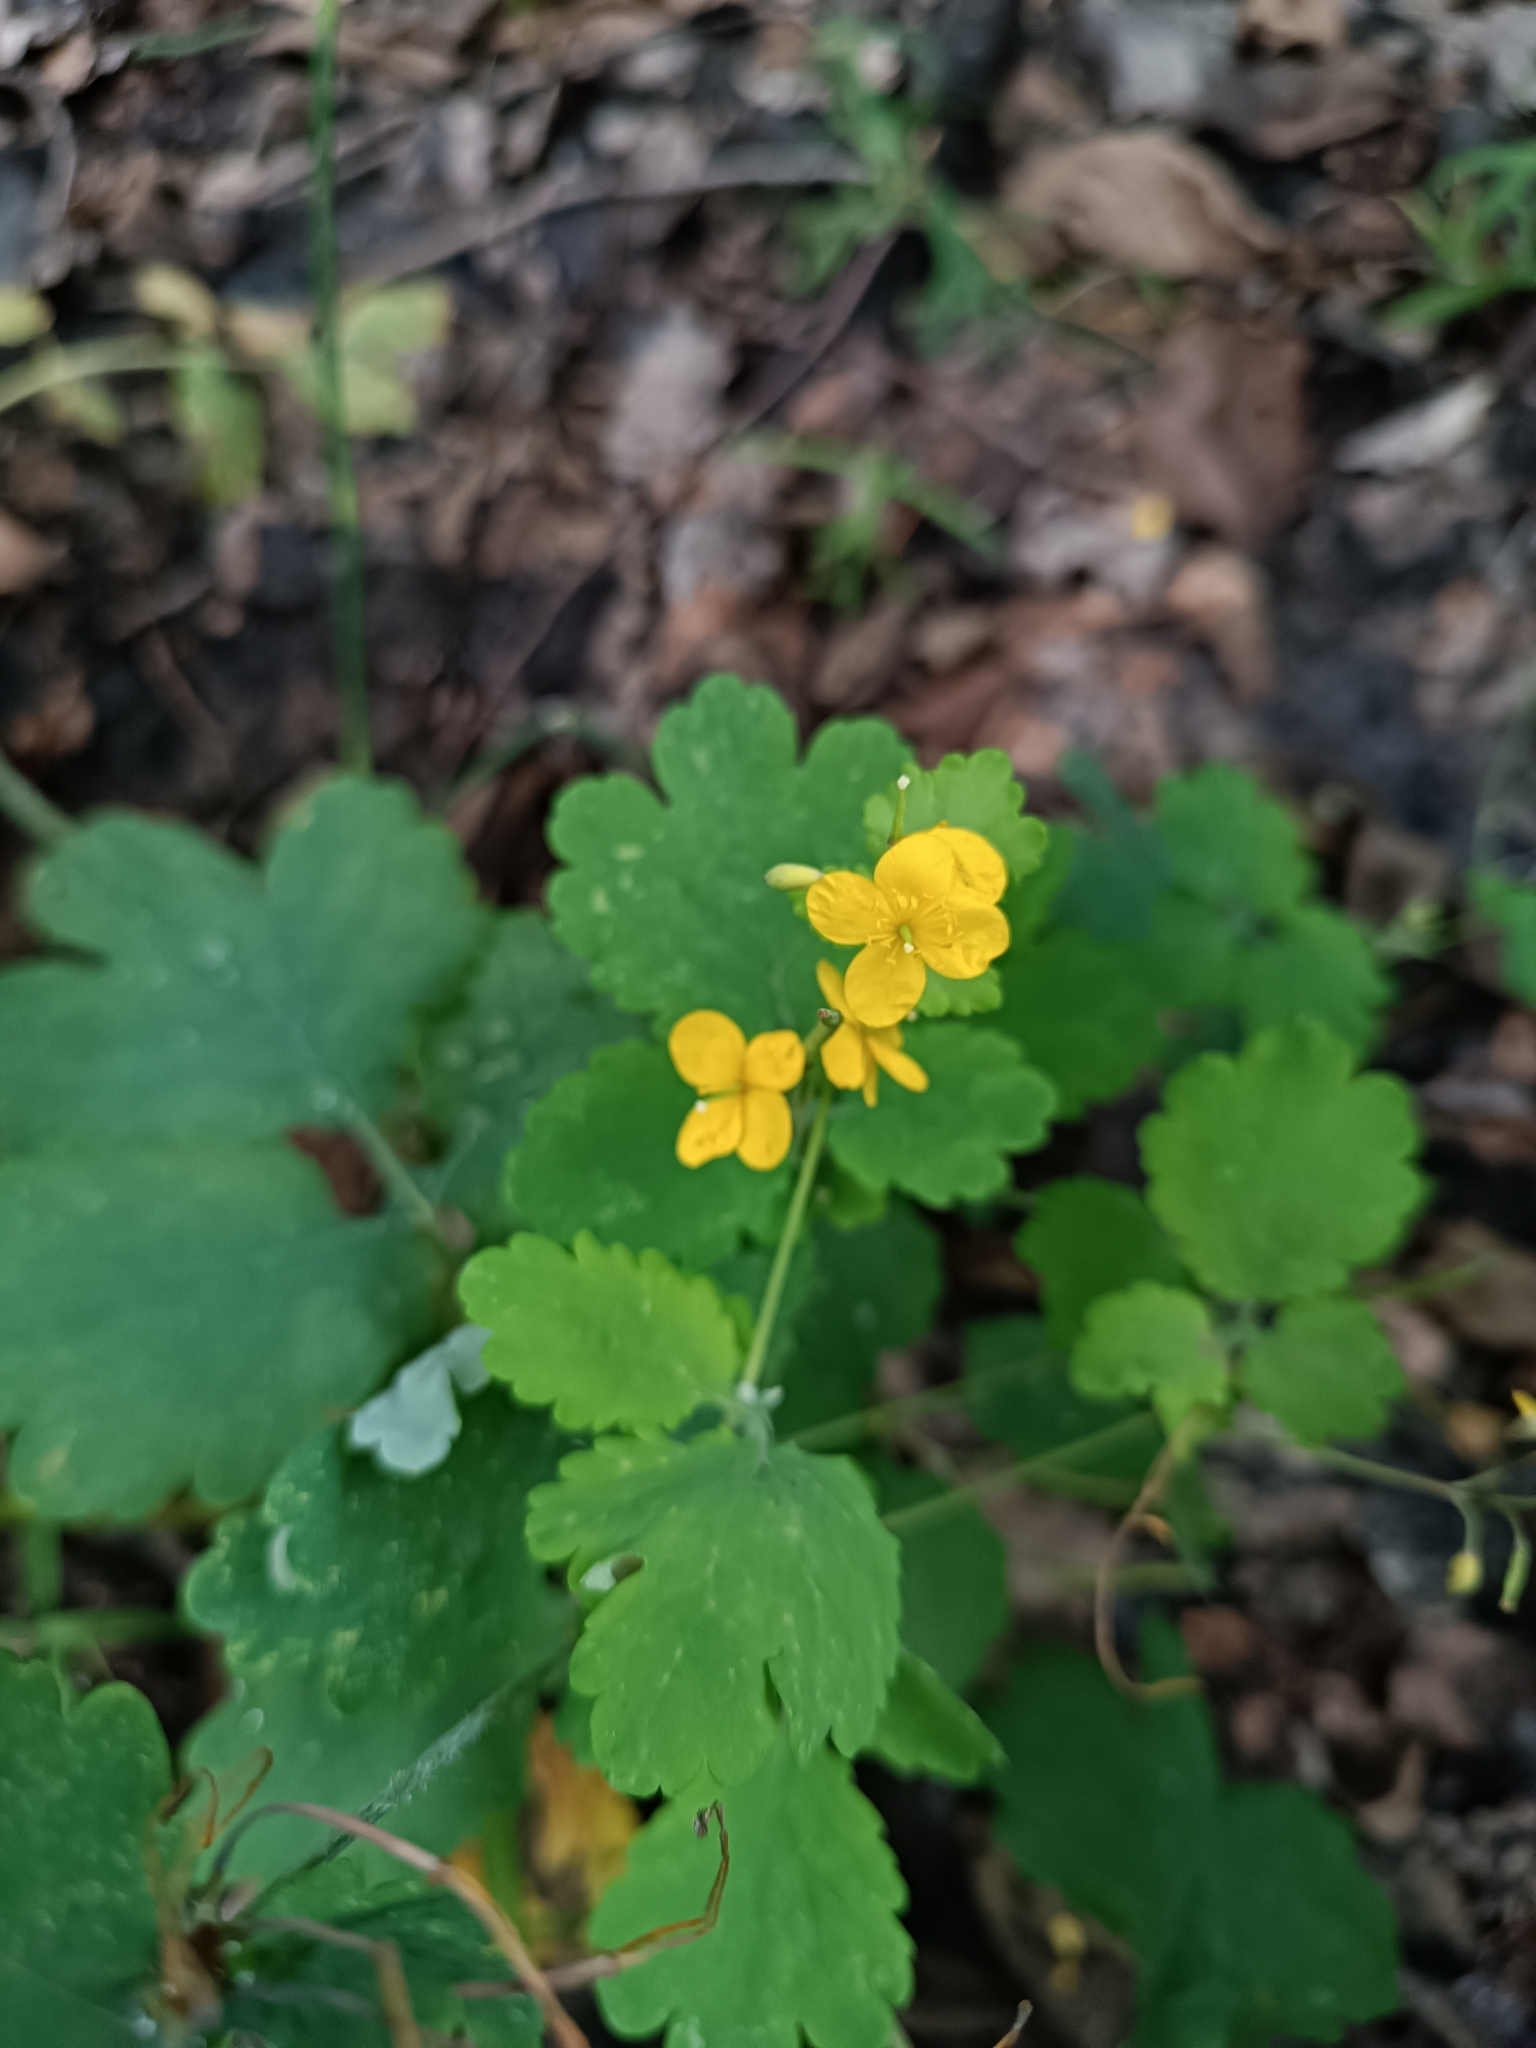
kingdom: Plantae
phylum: Tracheophyta
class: Magnoliopsida
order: Ranunculales
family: Papaveraceae
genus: Chelidonium
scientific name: Chelidonium majus
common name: Greater celandine
